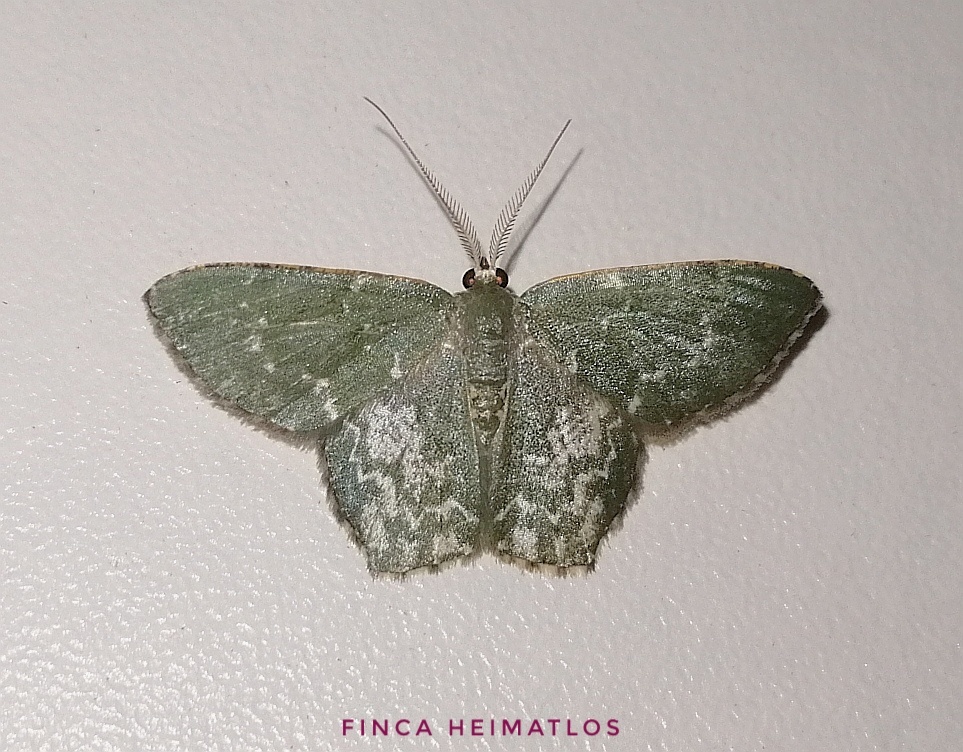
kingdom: Animalia
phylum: Arthropoda
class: Insecta
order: Lepidoptera
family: Geometridae
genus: Chloropteryx
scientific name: Chloropteryx dealbata
